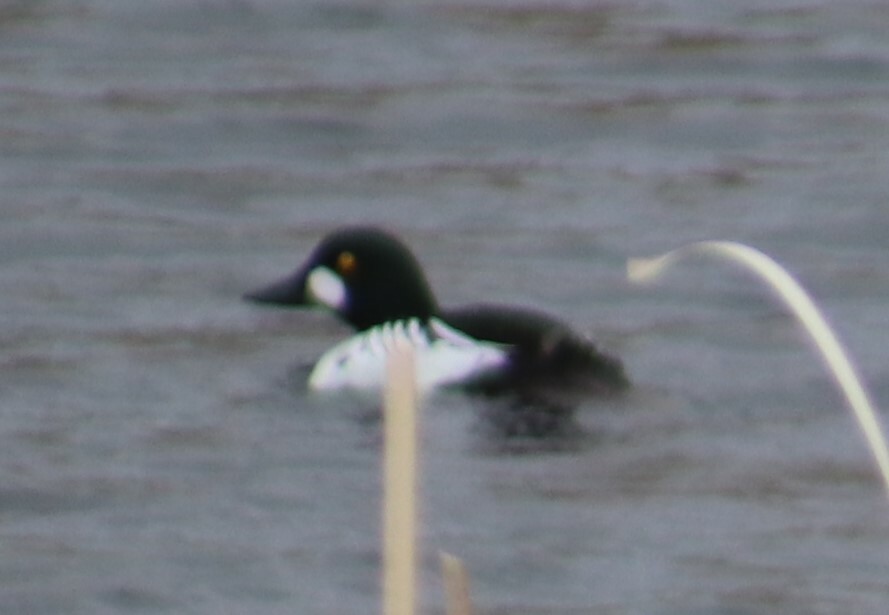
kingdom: Animalia
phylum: Chordata
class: Aves
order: Anseriformes
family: Anatidae
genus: Bucephala
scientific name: Bucephala clangula
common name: Common goldeneye
